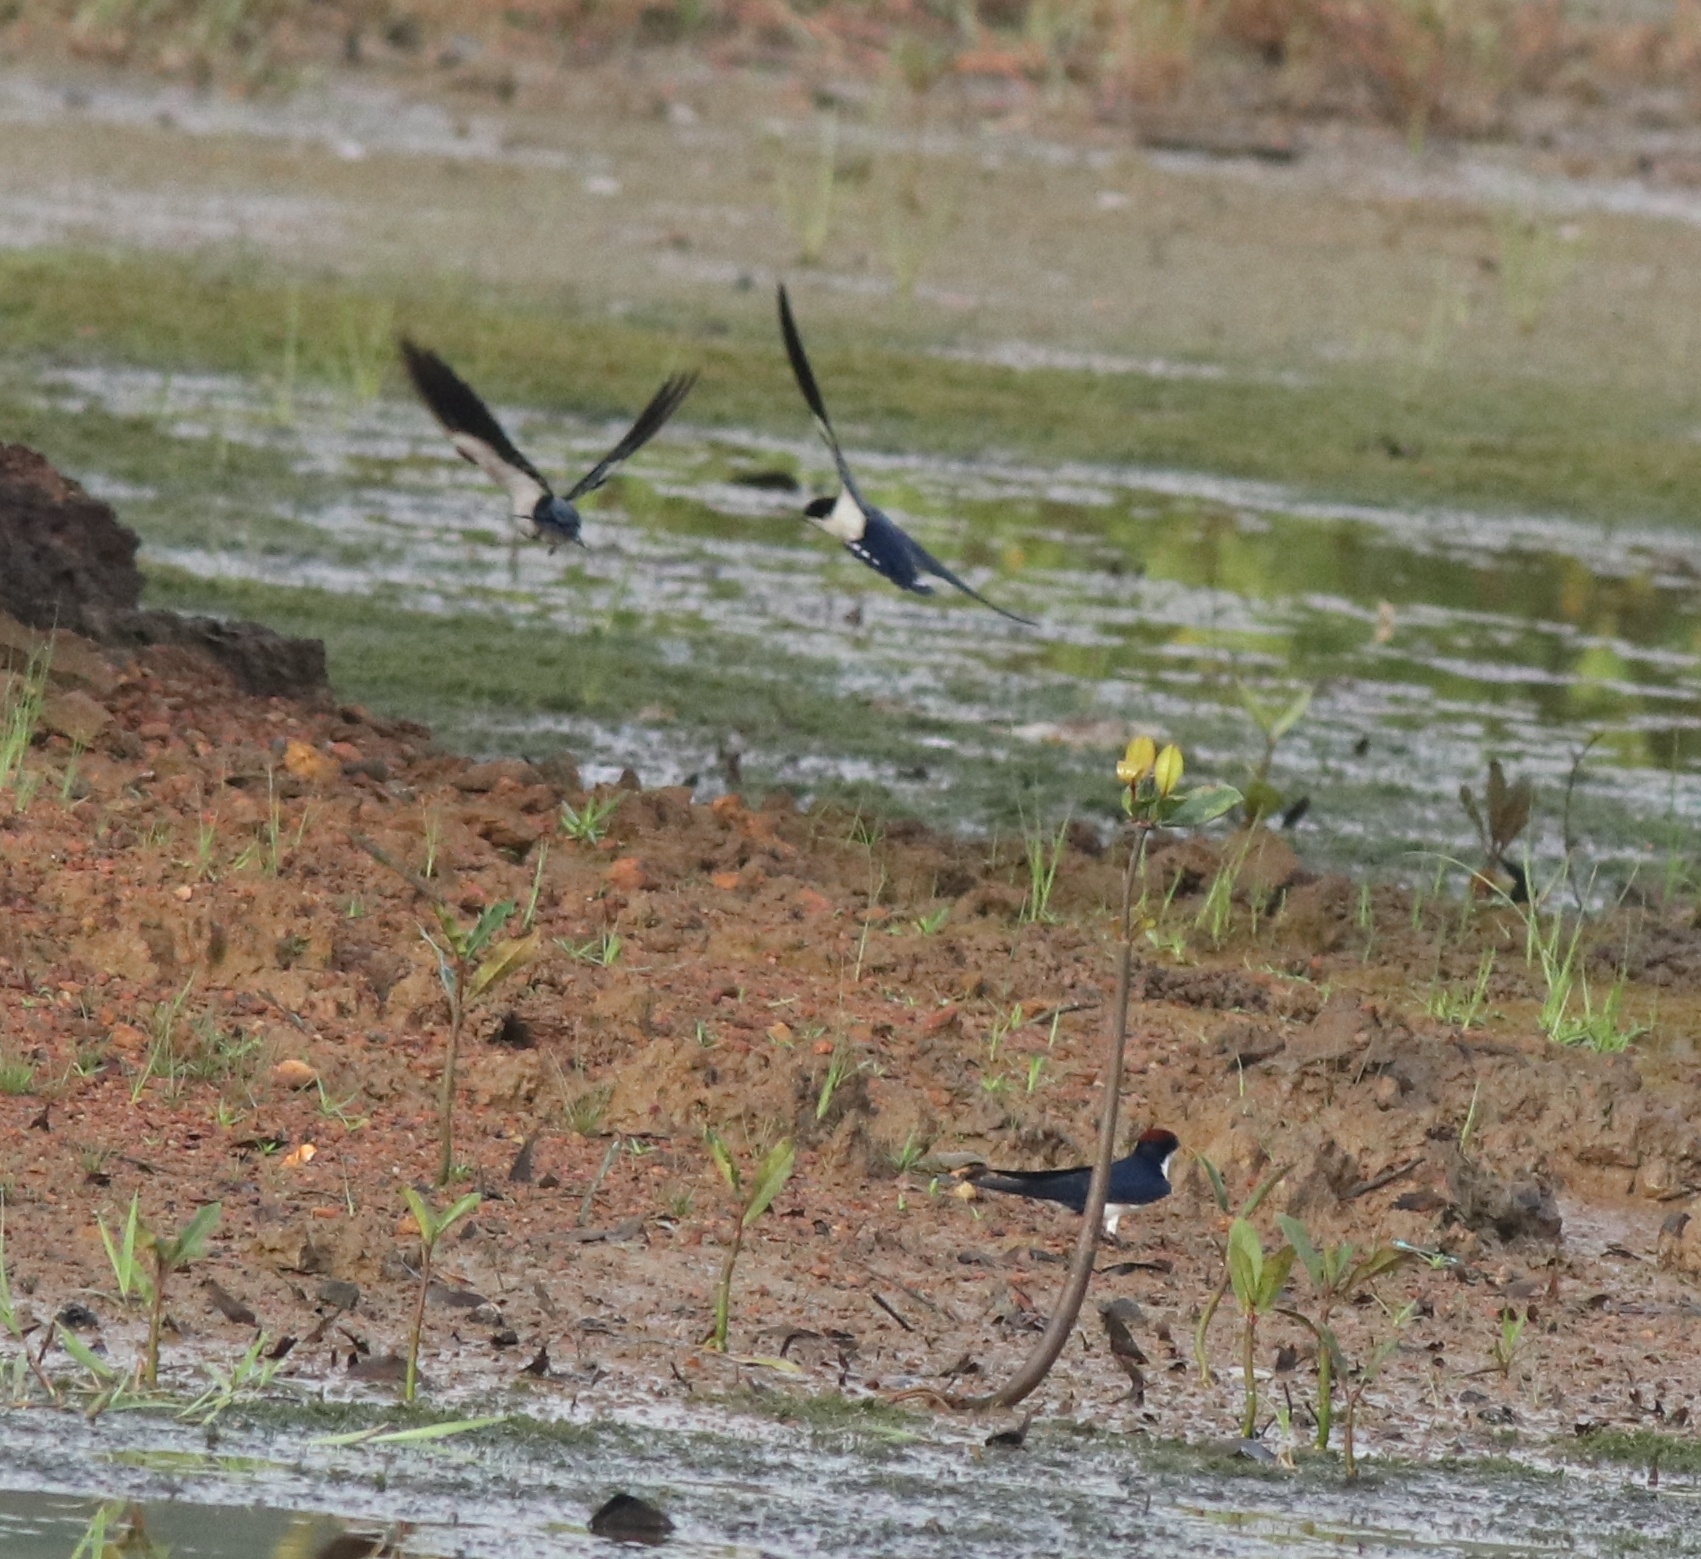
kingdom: Animalia
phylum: Chordata
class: Aves
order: Passeriformes
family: Hirundinidae
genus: Hirundo
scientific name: Hirundo smithii
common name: Wire-tailed swallow
